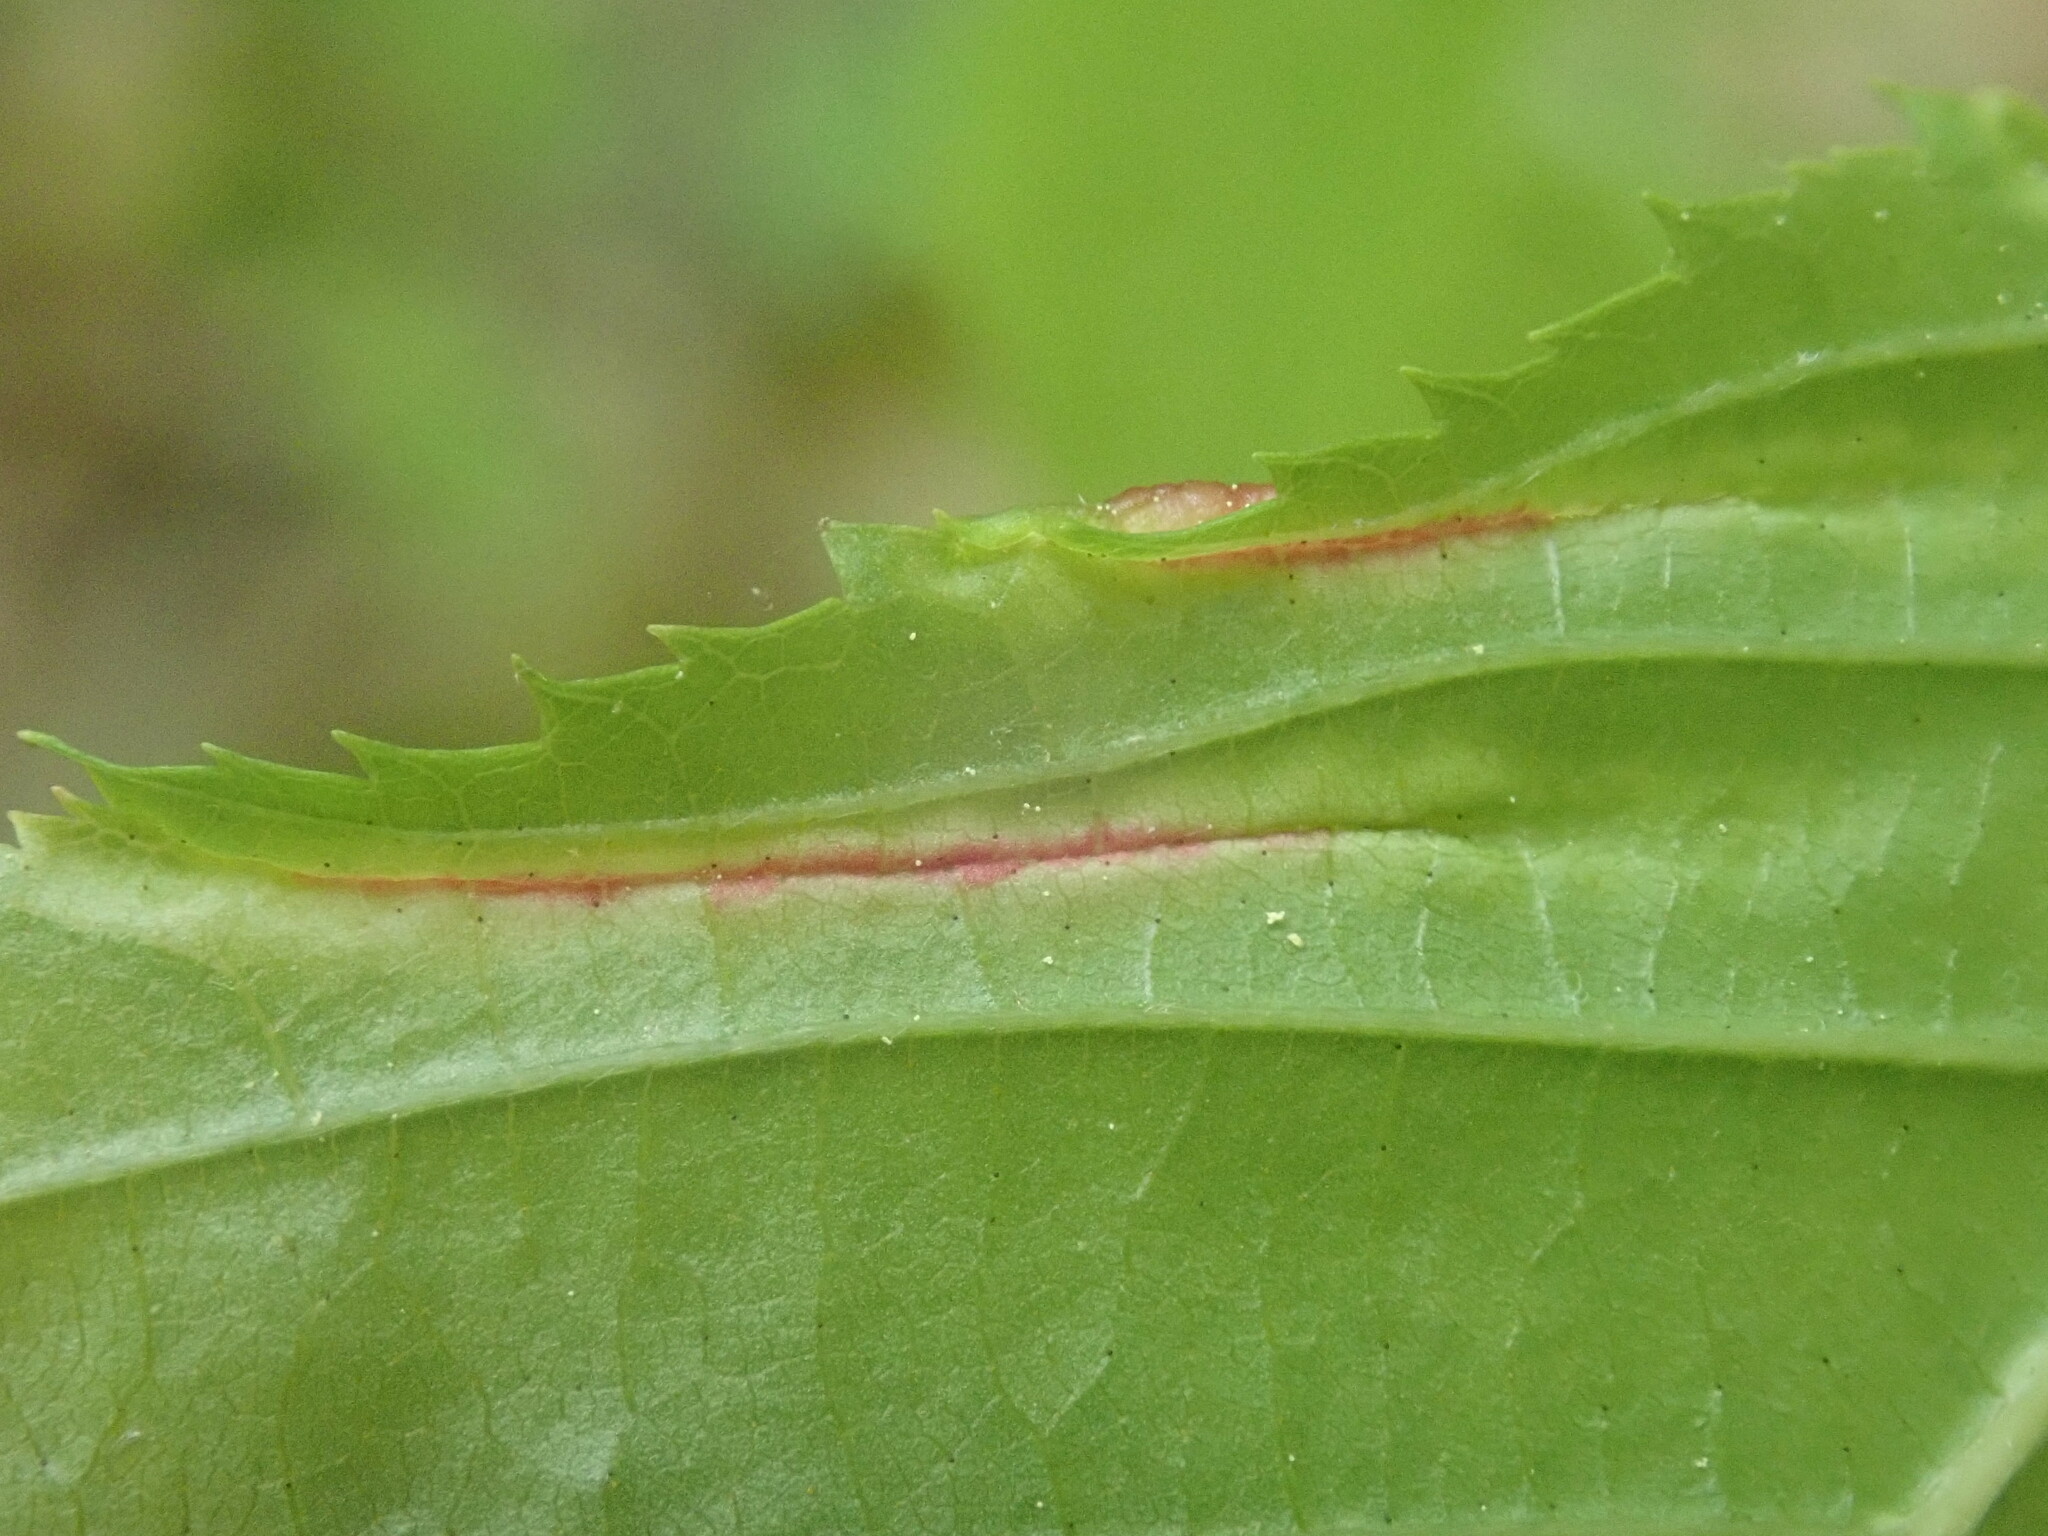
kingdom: Animalia
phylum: Arthropoda
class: Insecta
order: Diptera
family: Cecidomyiidae
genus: Dasineura
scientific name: Dasineura pudibunda
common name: Hornbeam leaf gall midge
